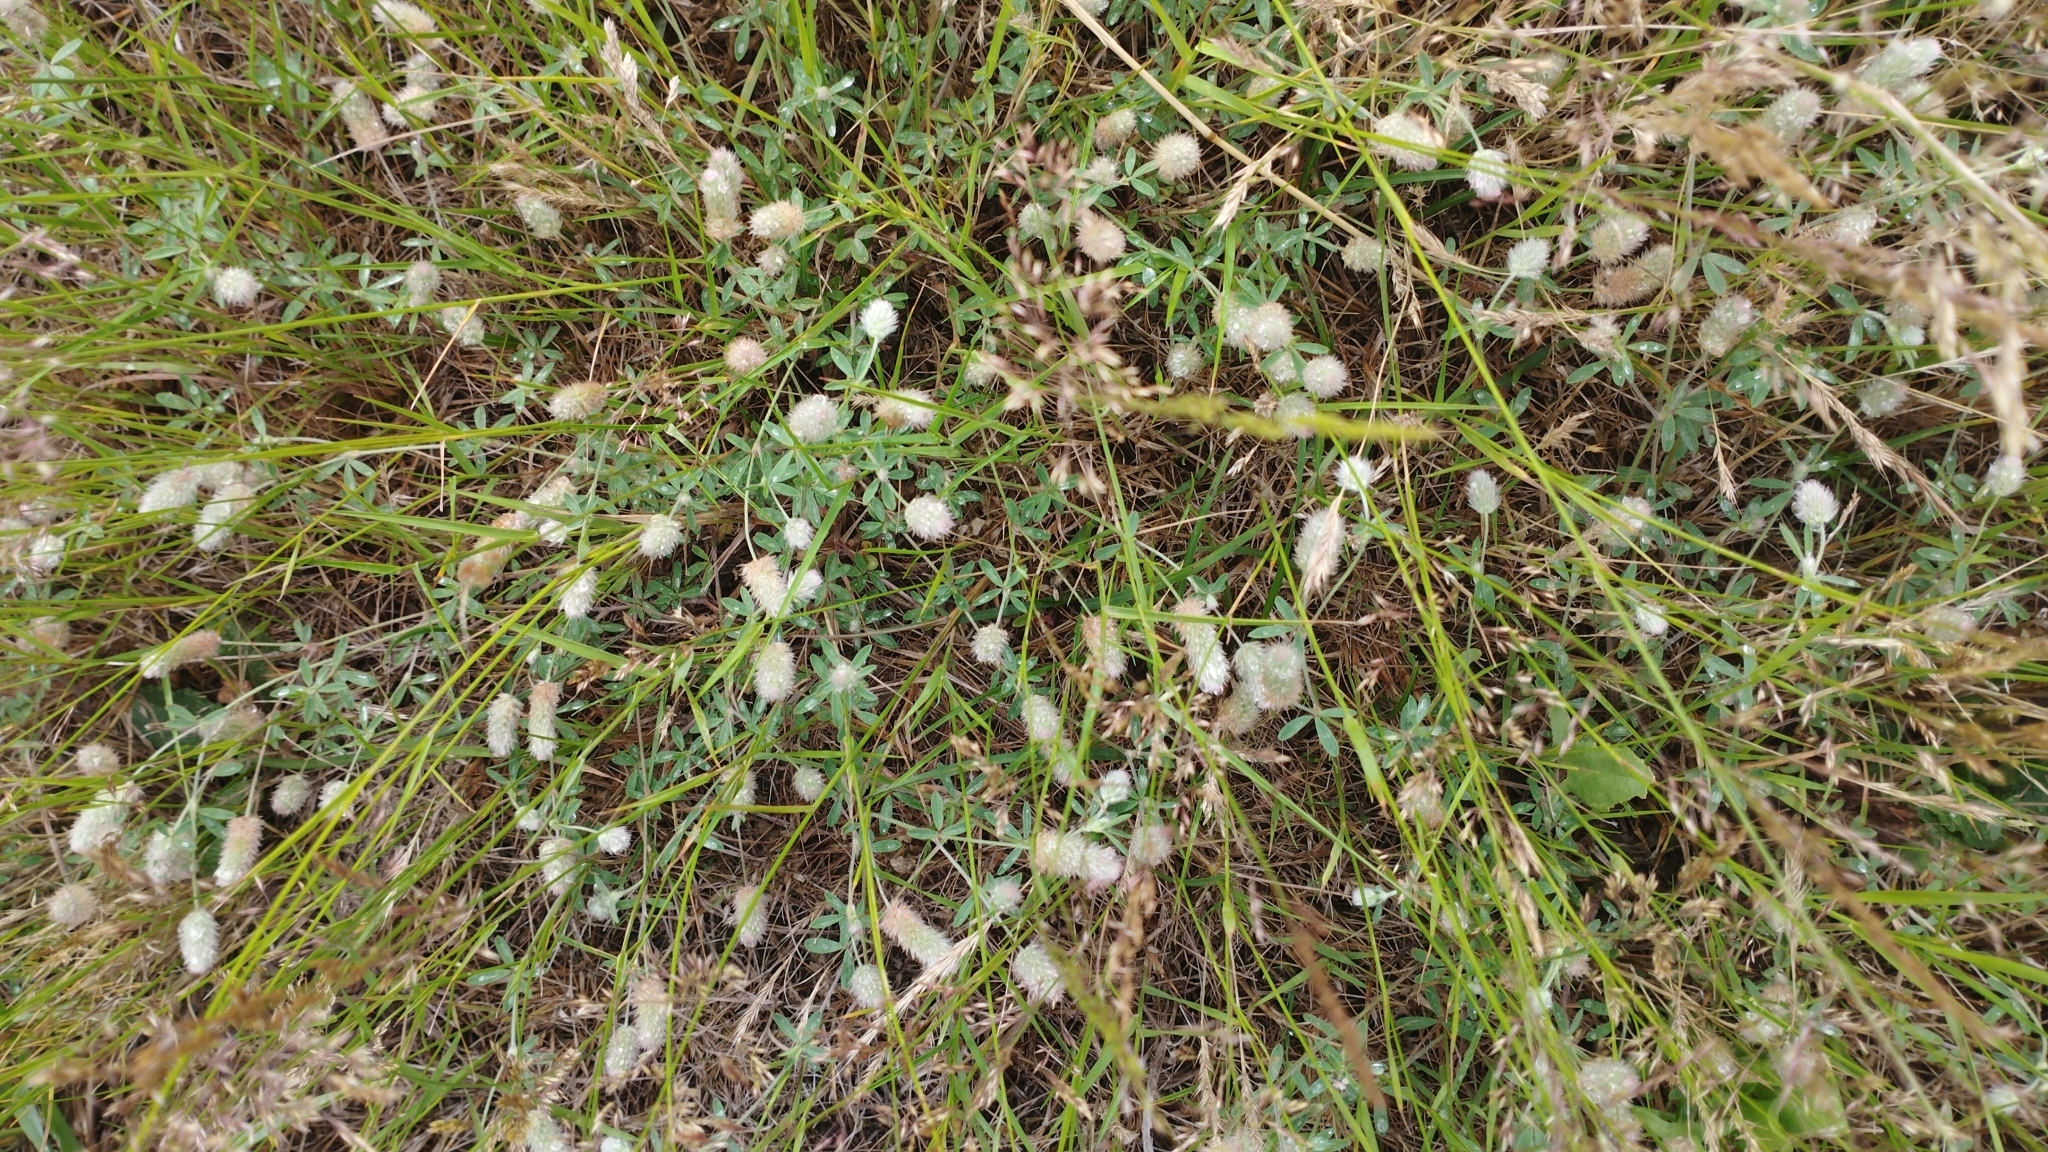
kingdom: Plantae
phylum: Tracheophyta
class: Magnoliopsida
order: Fabales
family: Fabaceae
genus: Trifolium
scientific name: Trifolium arvense
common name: Hare's-foot clover
